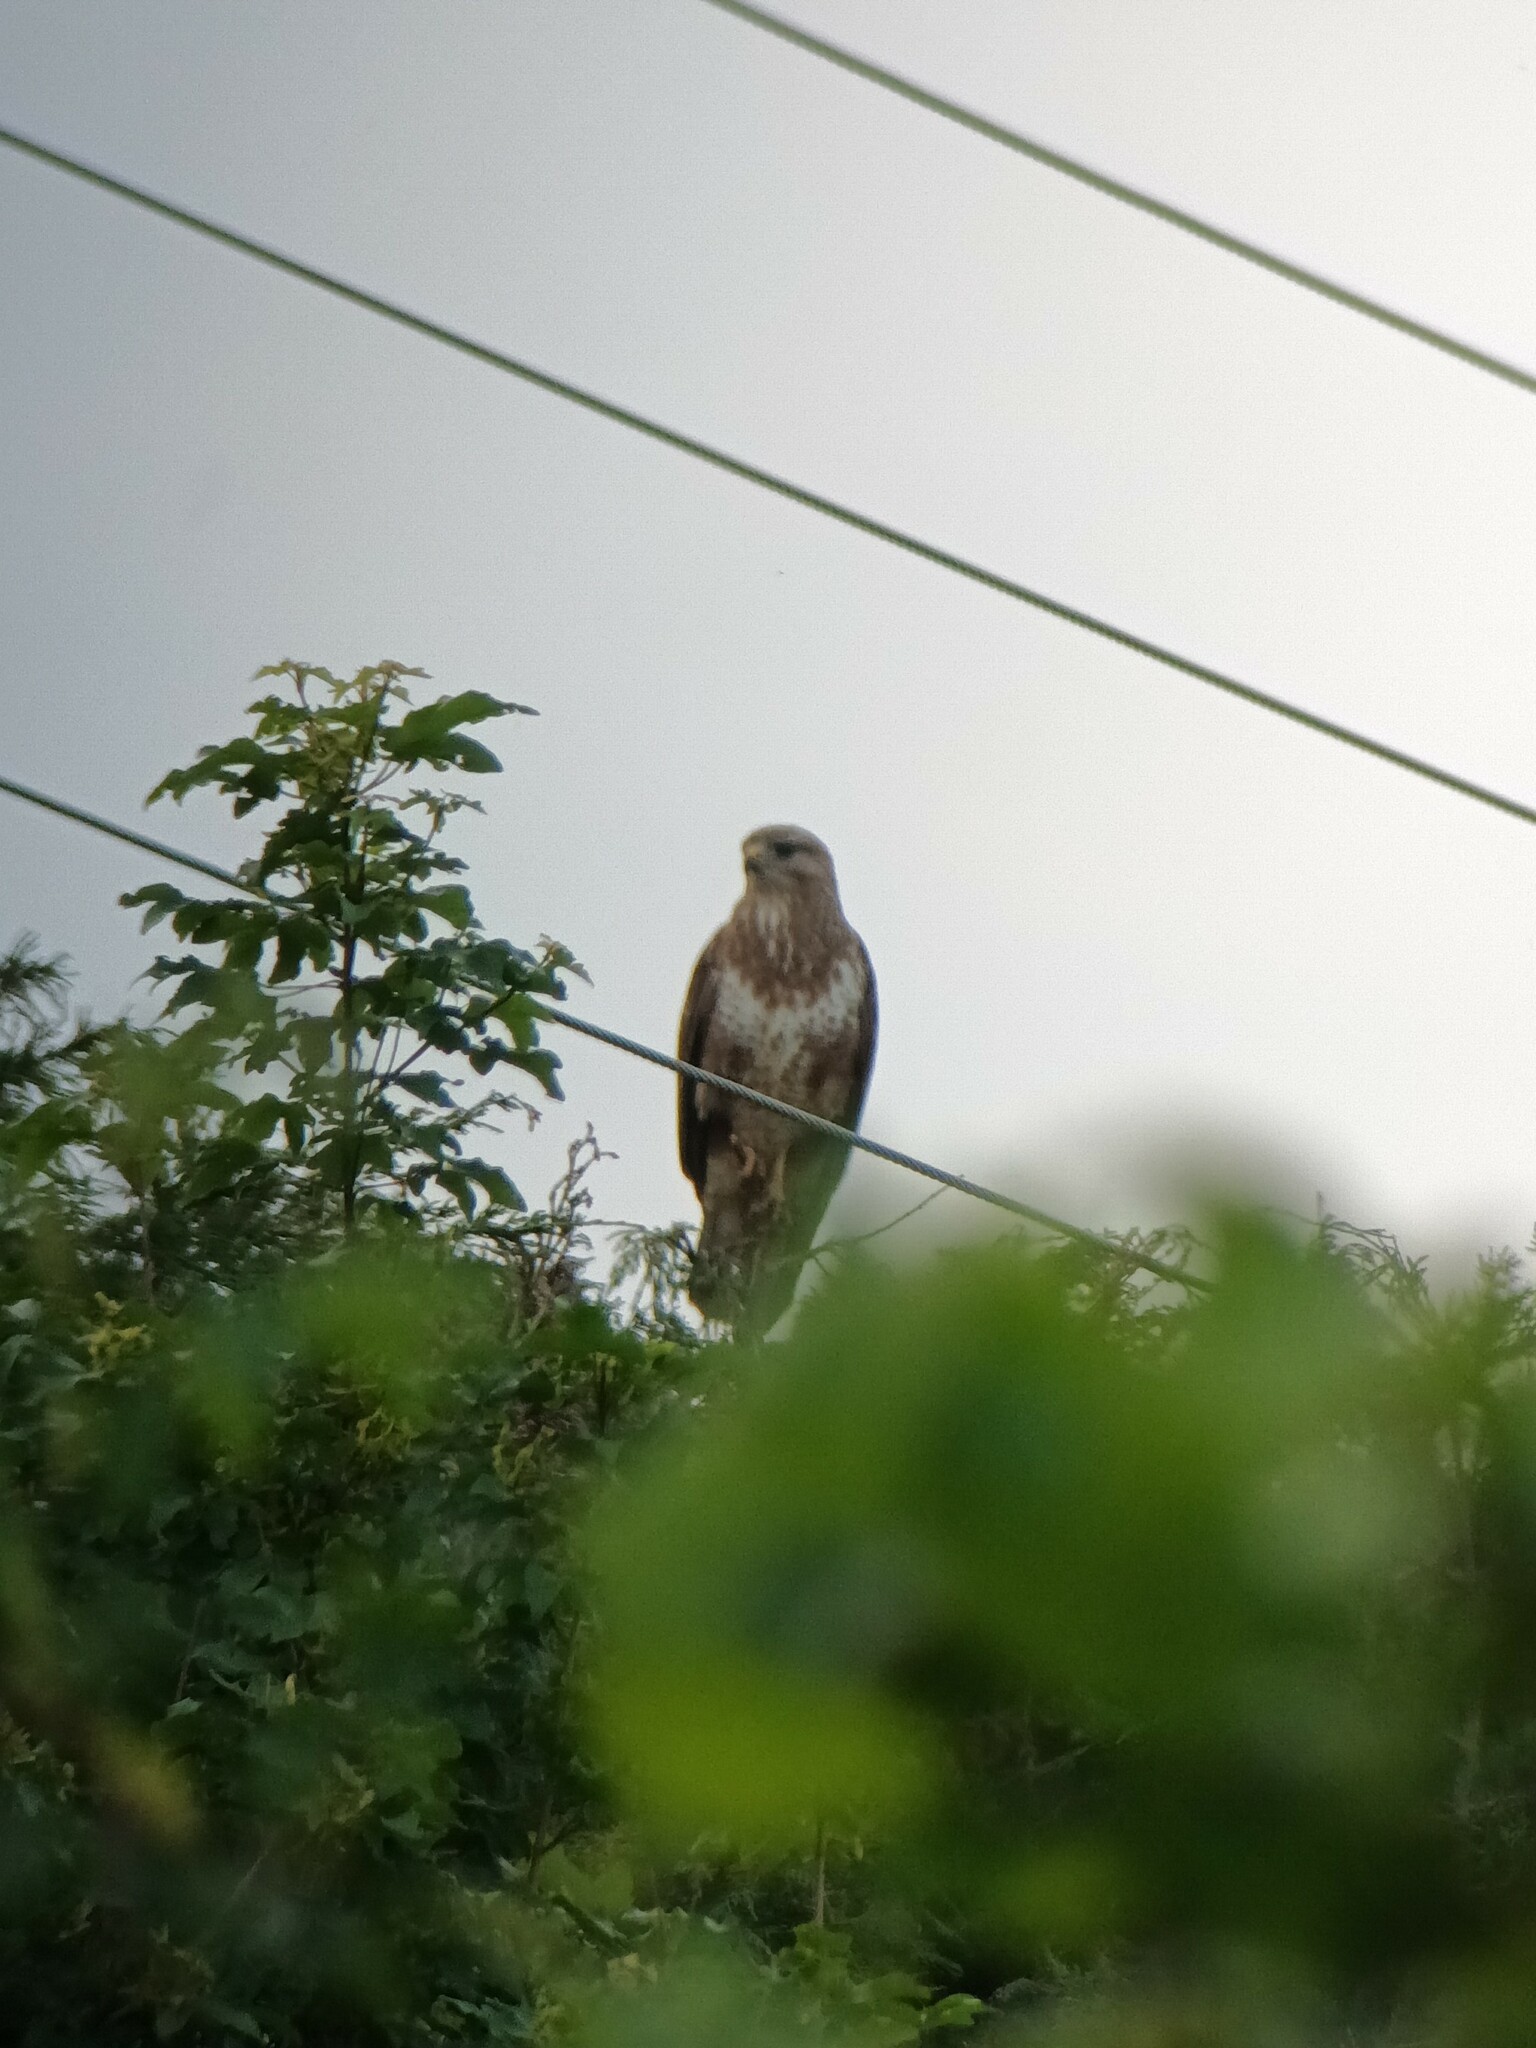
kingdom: Animalia
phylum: Chordata
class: Aves
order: Accipitriformes
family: Accipitridae
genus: Buteo
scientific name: Buteo buteo
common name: Common buzzard
